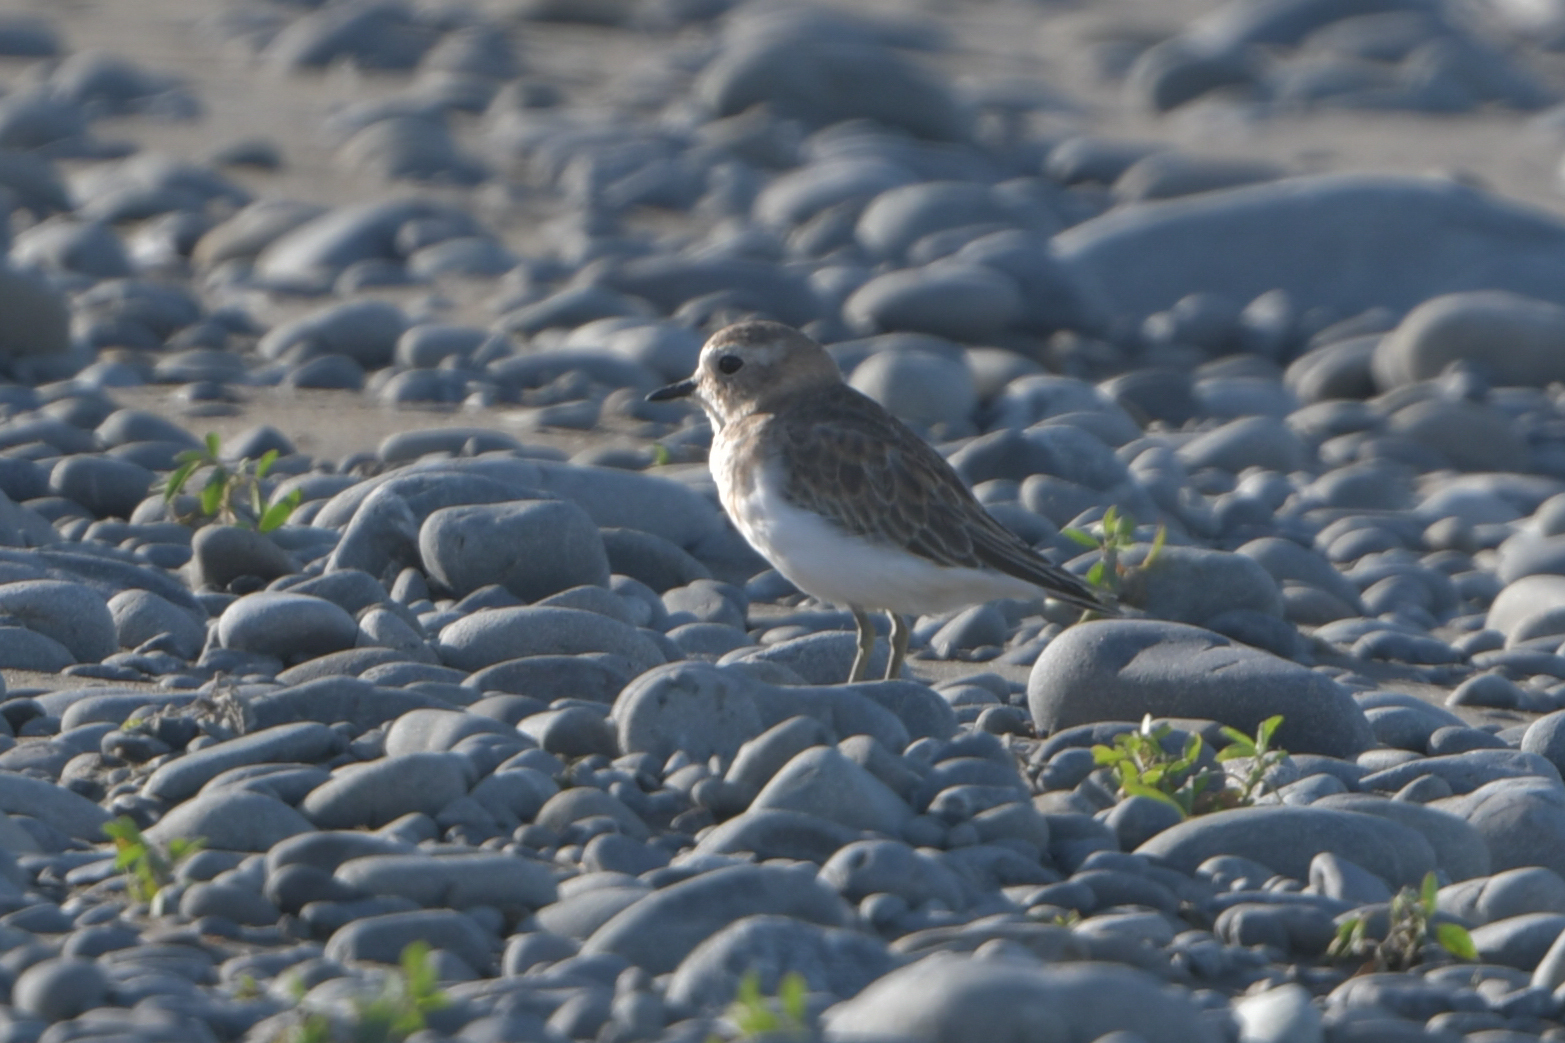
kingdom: Animalia
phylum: Chordata
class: Aves
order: Charadriiformes
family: Charadriidae
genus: Anarhynchus
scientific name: Anarhynchus
